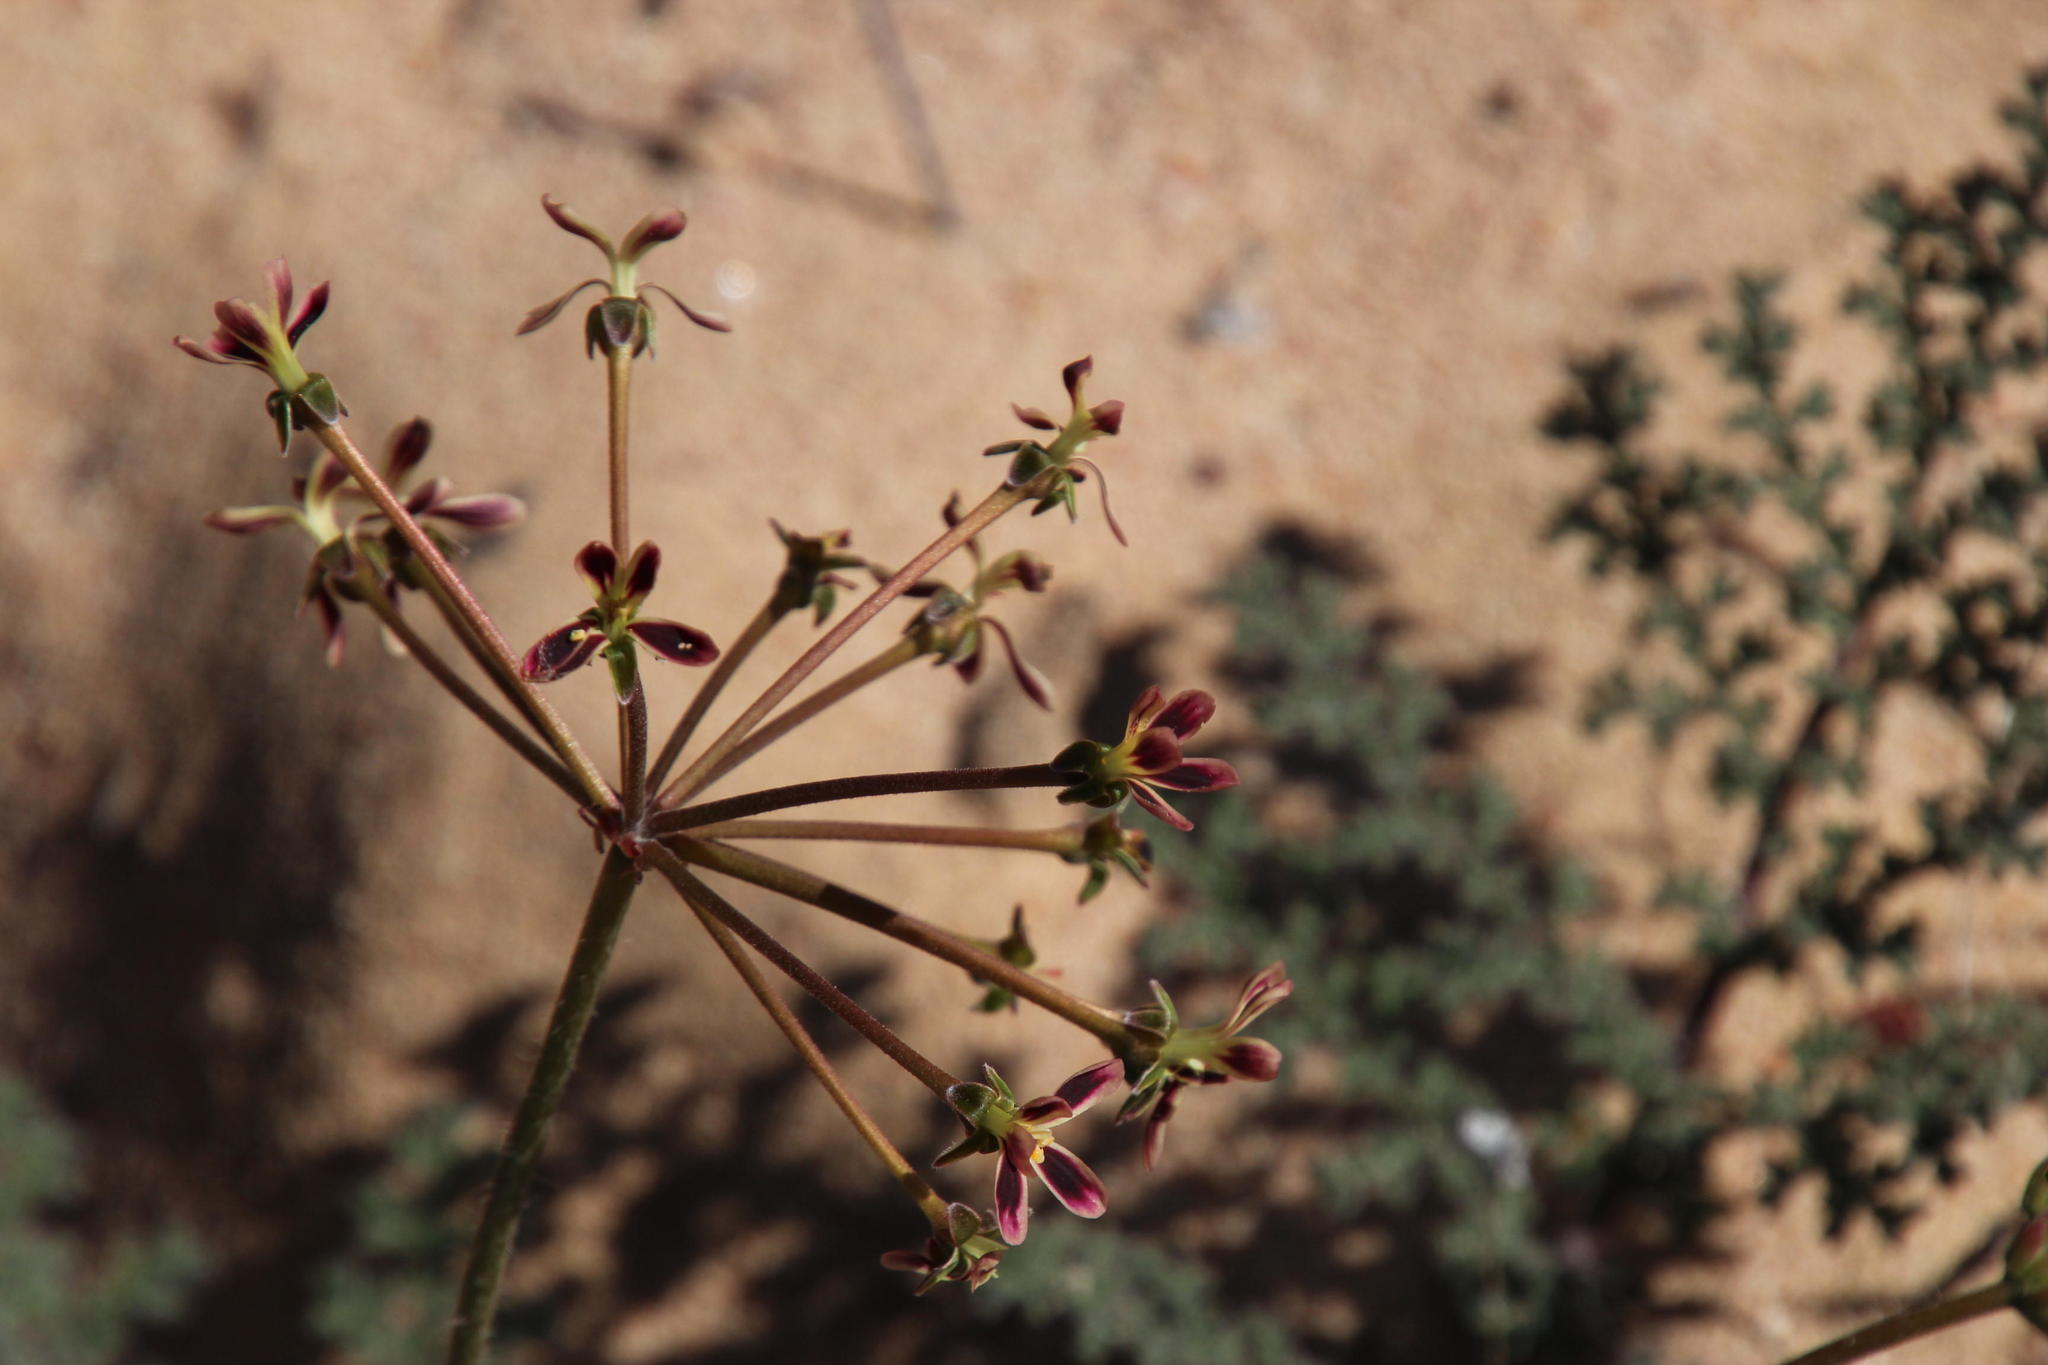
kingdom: Plantae
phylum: Tracheophyta
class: Magnoliopsida
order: Geraniales
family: Geraniaceae
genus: Pelargonium
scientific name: Pelargonium triste
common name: Night-scent pelargonium
